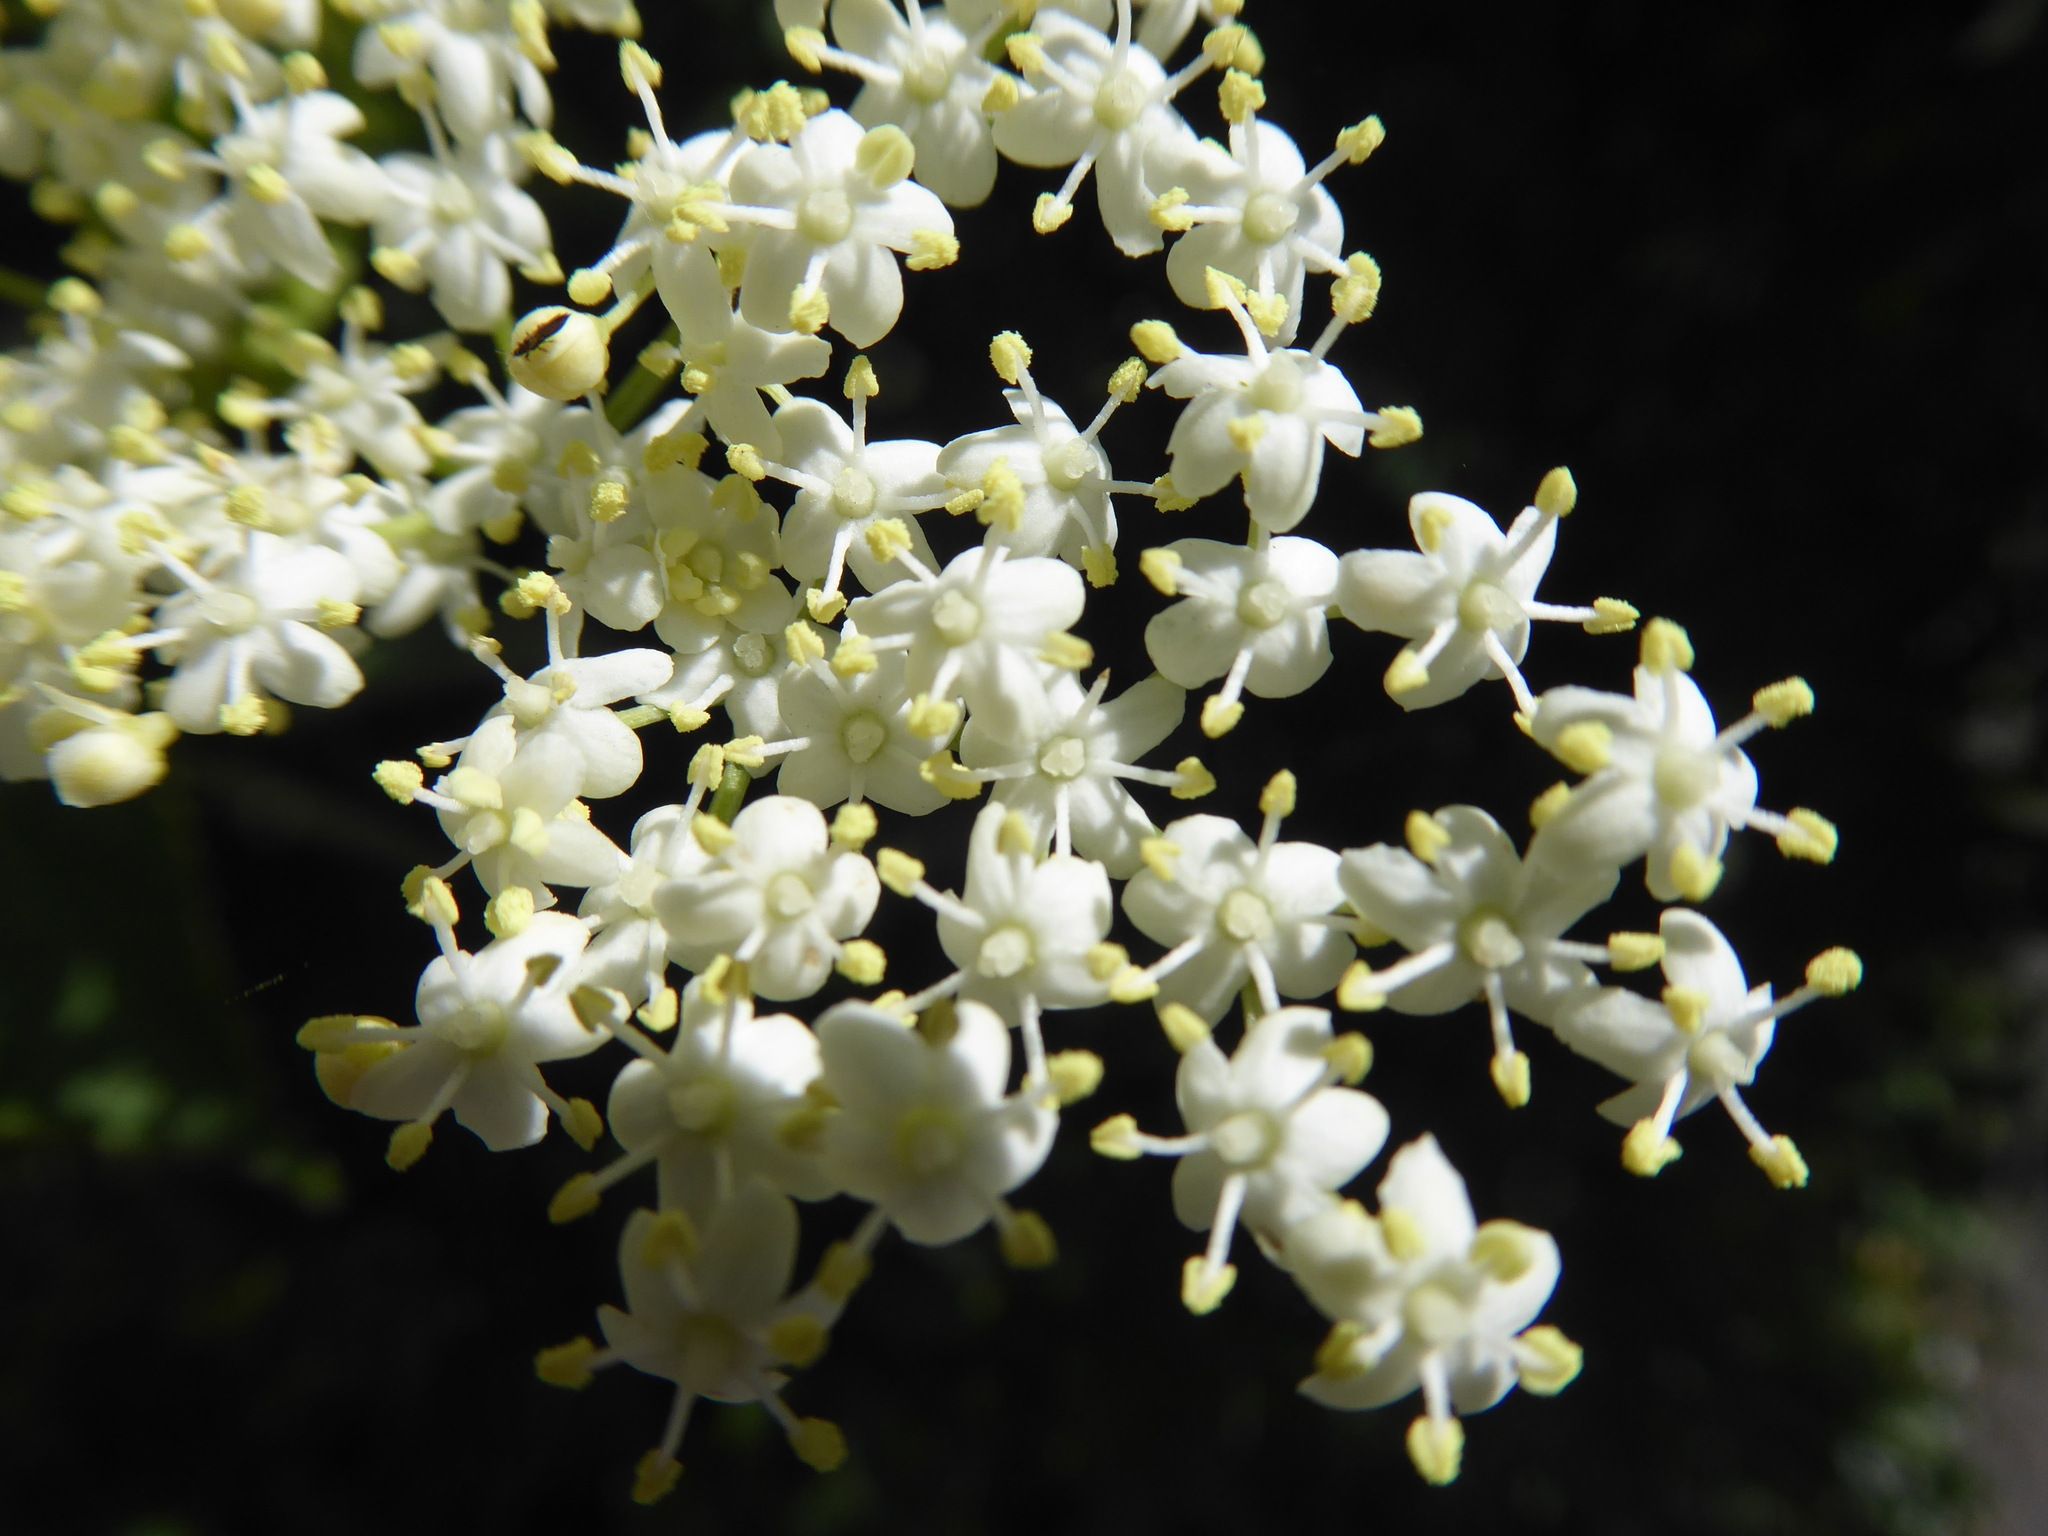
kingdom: Plantae
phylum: Tracheophyta
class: Magnoliopsida
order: Dipsacales
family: Viburnaceae
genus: Sambucus
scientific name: Sambucus nigra
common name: Elder
